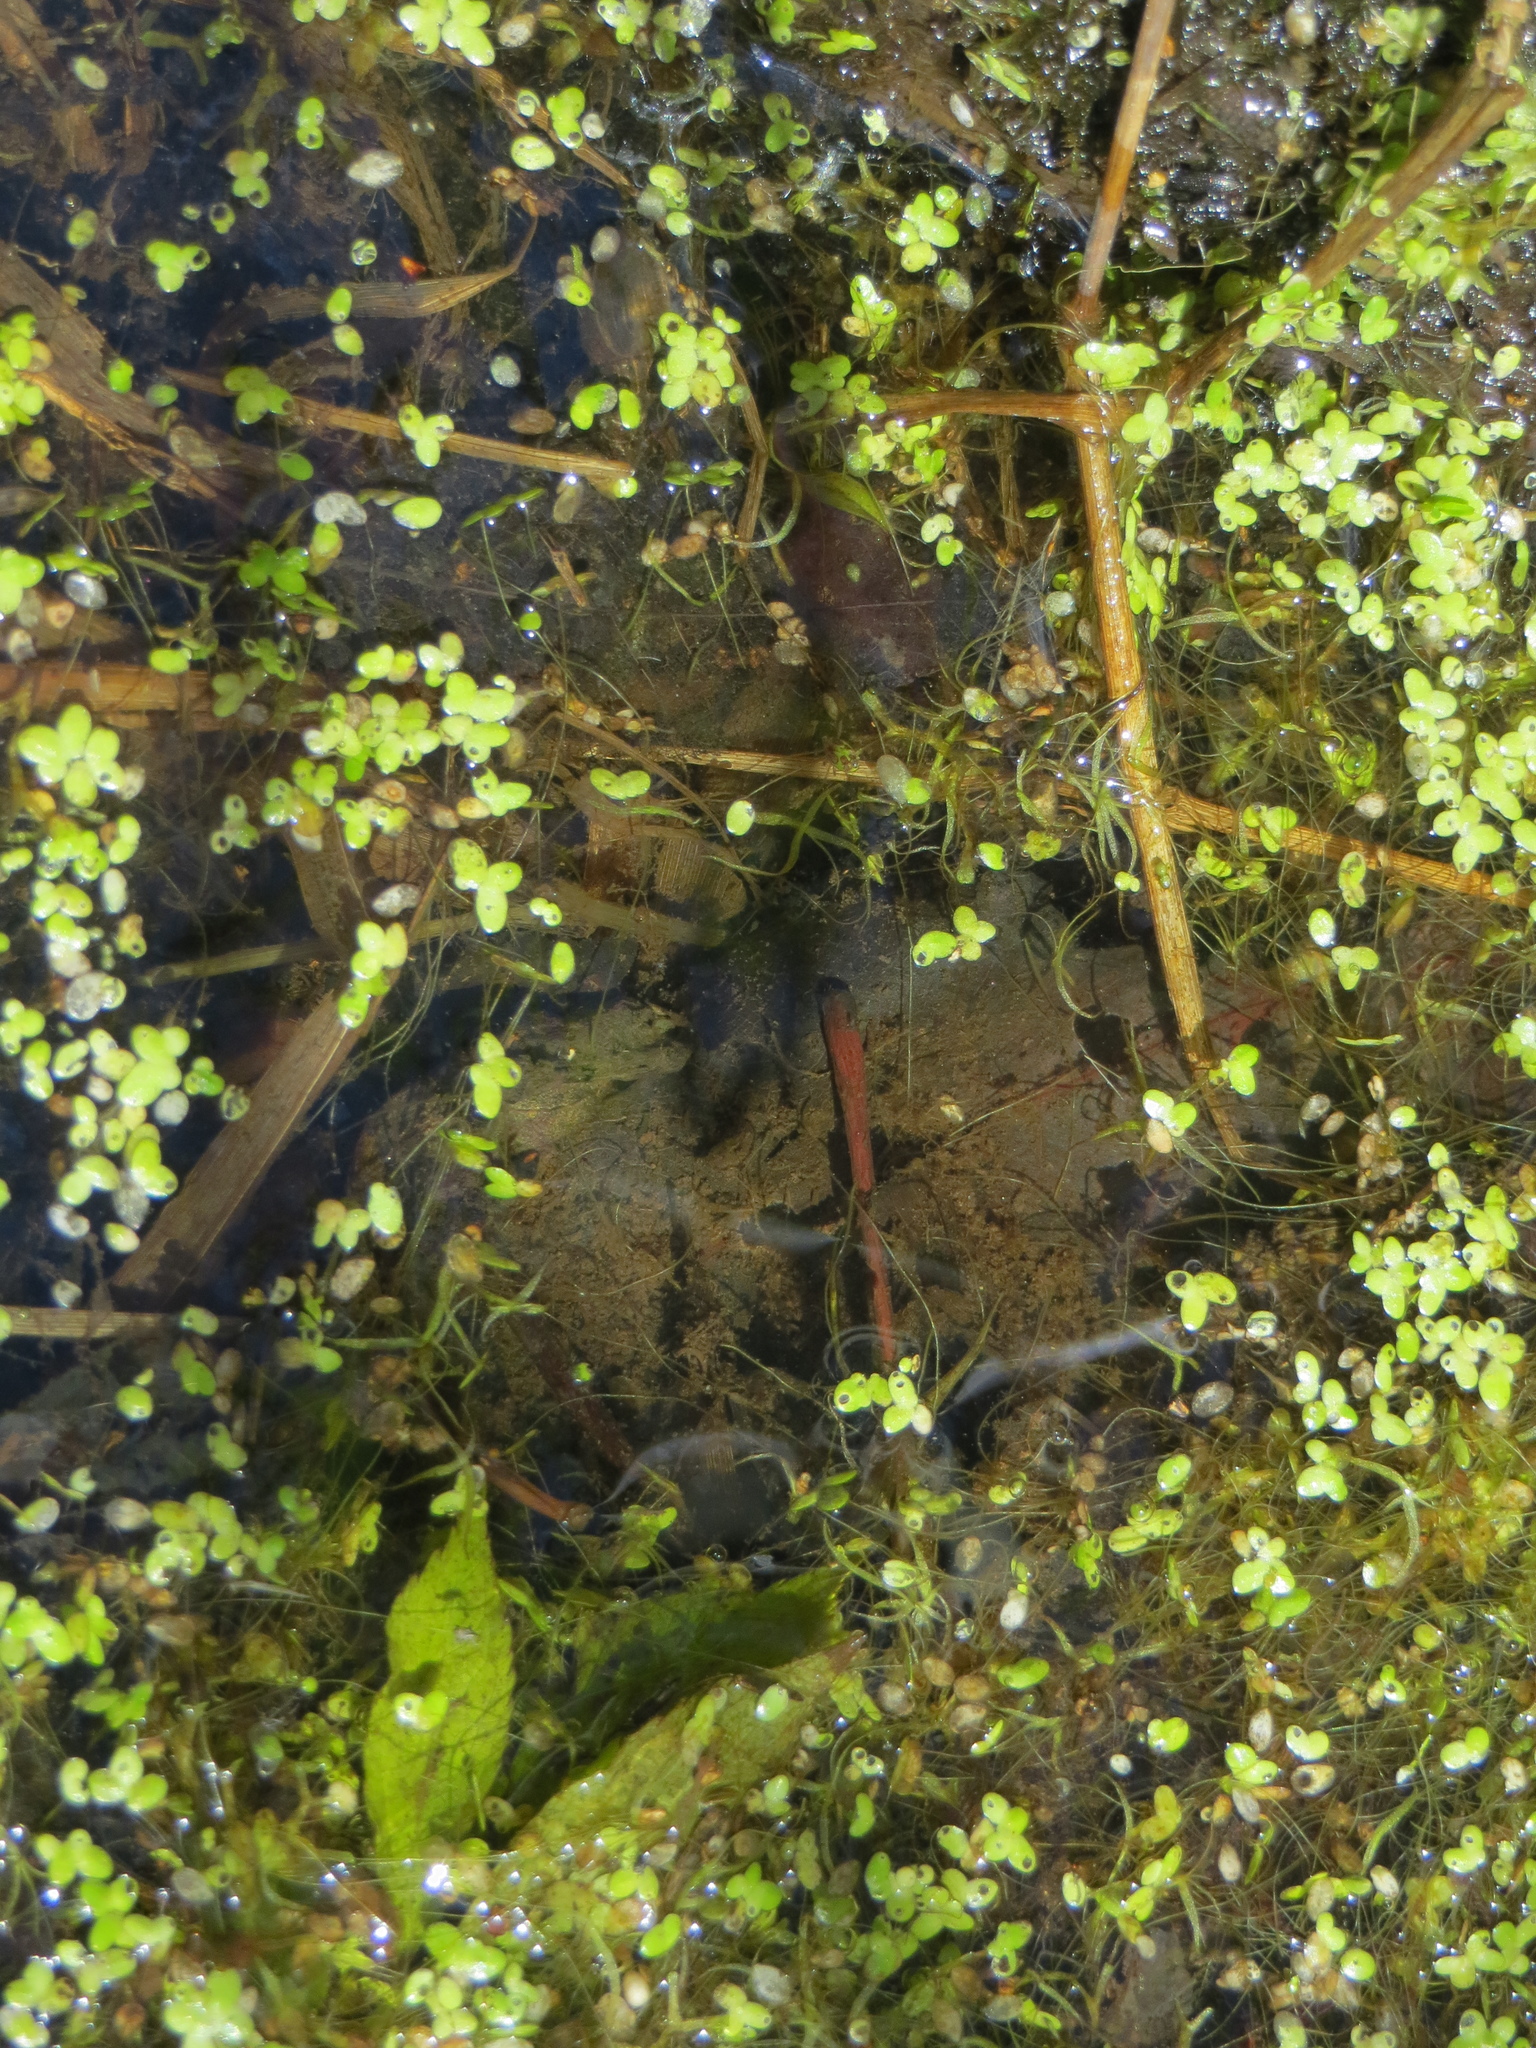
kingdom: Plantae
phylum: Tracheophyta
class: Liliopsida
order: Alismatales
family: Araceae
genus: Wolffiella
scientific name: Wolffiella gladiata
